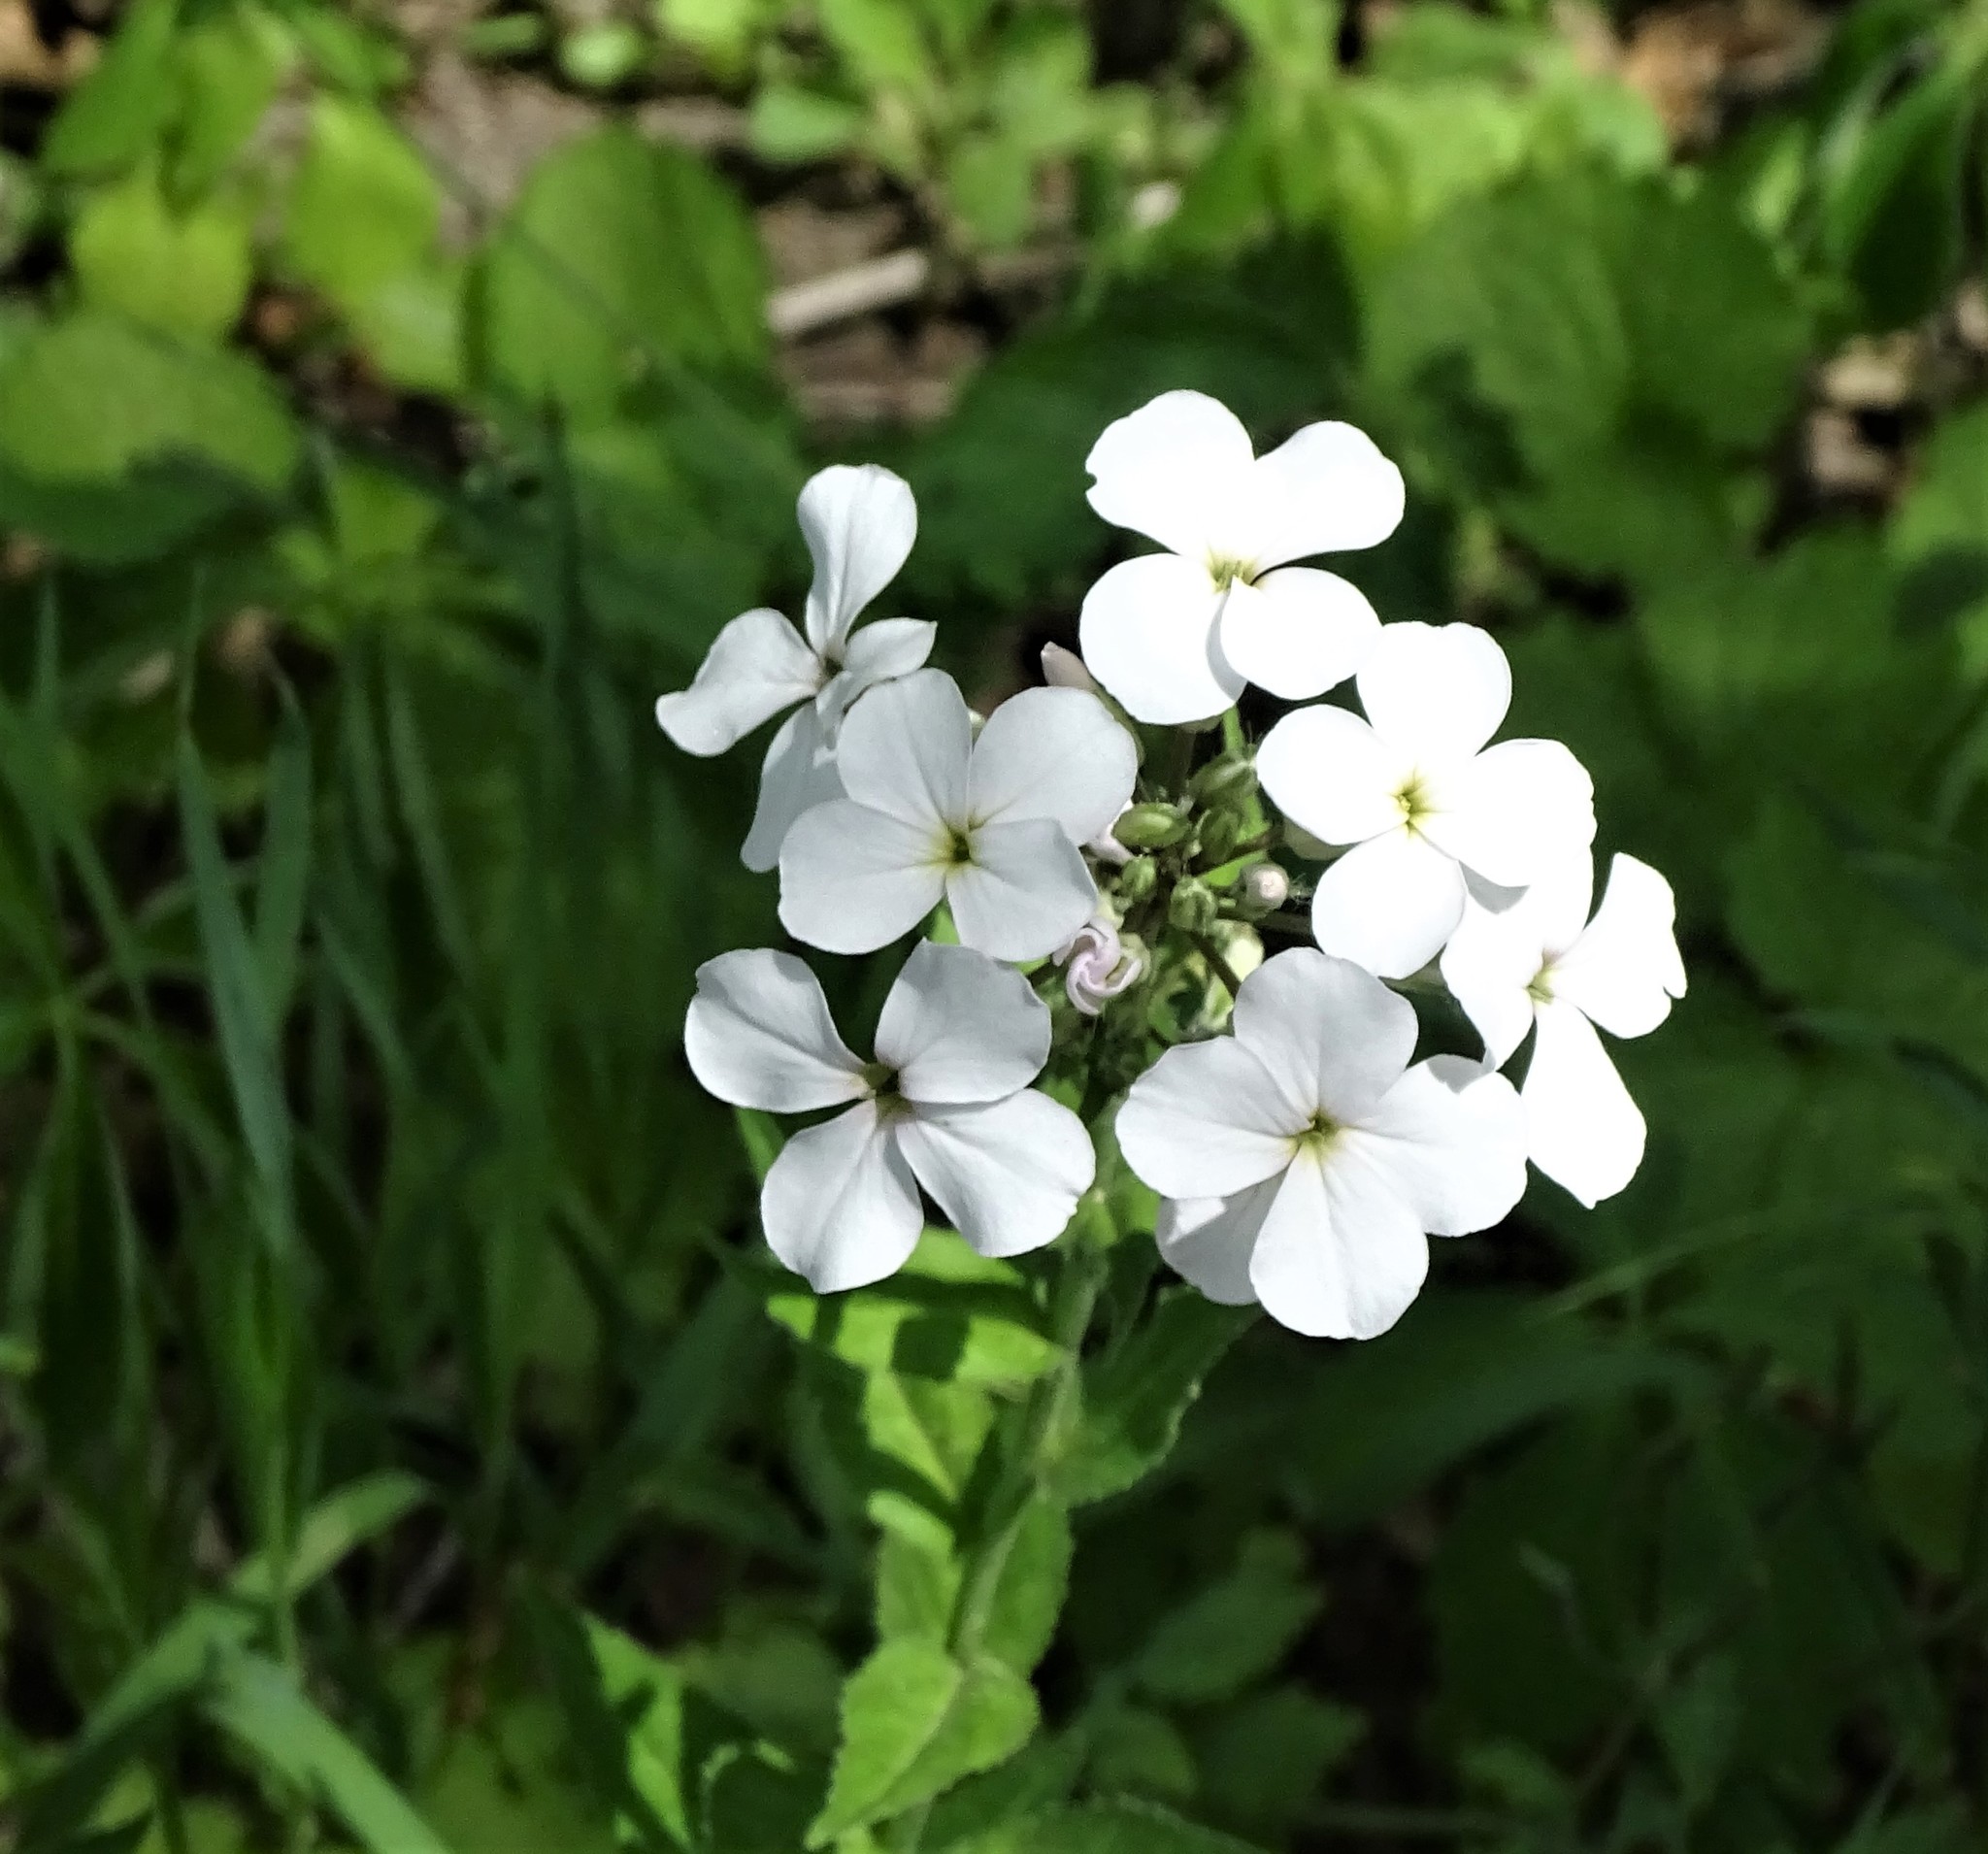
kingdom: Plantae
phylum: Tracheophyta
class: Magnoliopsida
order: Brassicales
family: Brassicaceae
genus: Hesperis
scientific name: Hesperis matronalis
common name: Dame's-violet
